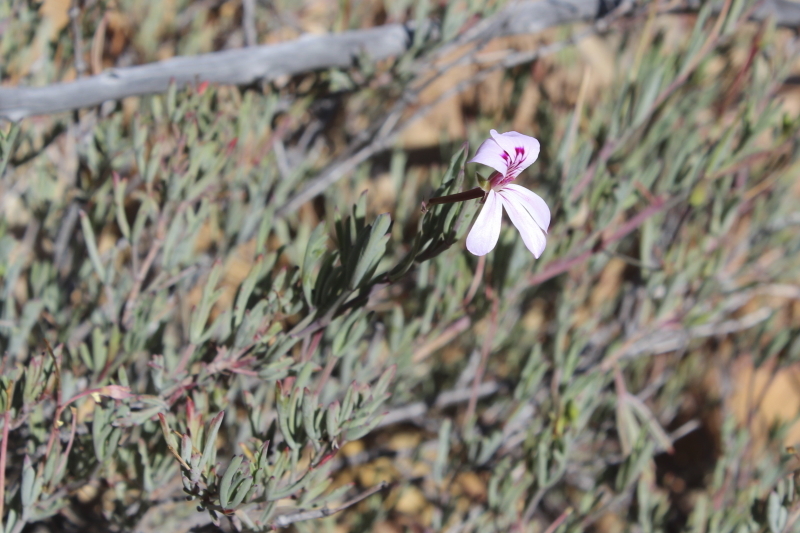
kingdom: Plantae
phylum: Tracheophyta
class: Magnoliopsida
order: Geraniales
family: Geraniaceae
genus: Pelargonium
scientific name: Pelargonium laevigatum
